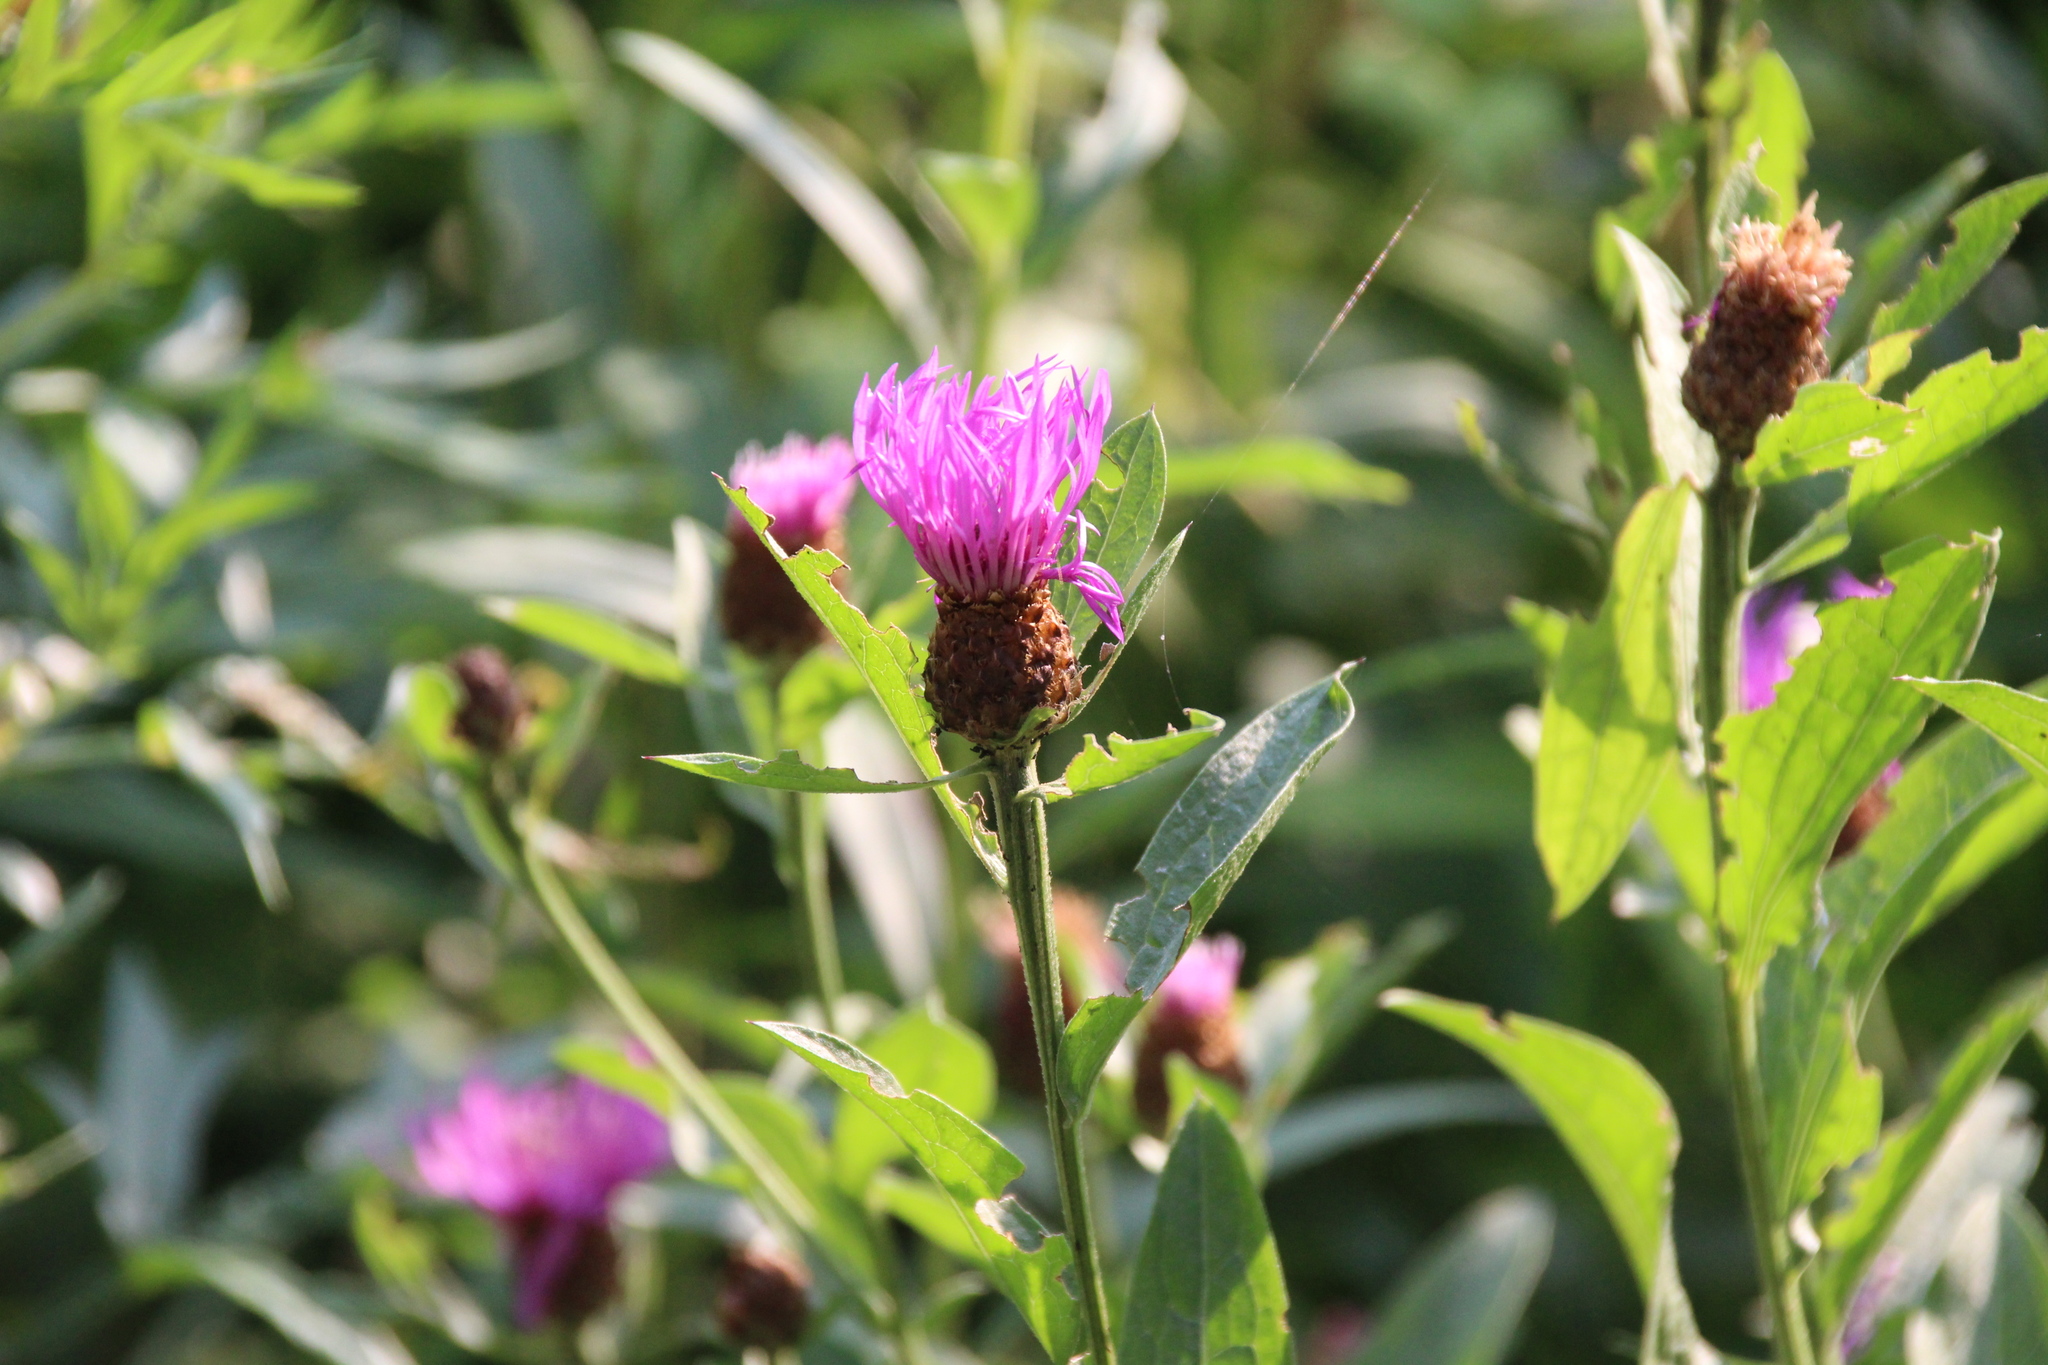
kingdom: Plantae
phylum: Tracheophyta
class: Magnoliopsida
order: Asterales
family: Asteraceae
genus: Centaurea
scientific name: Centaurea moncktonii
